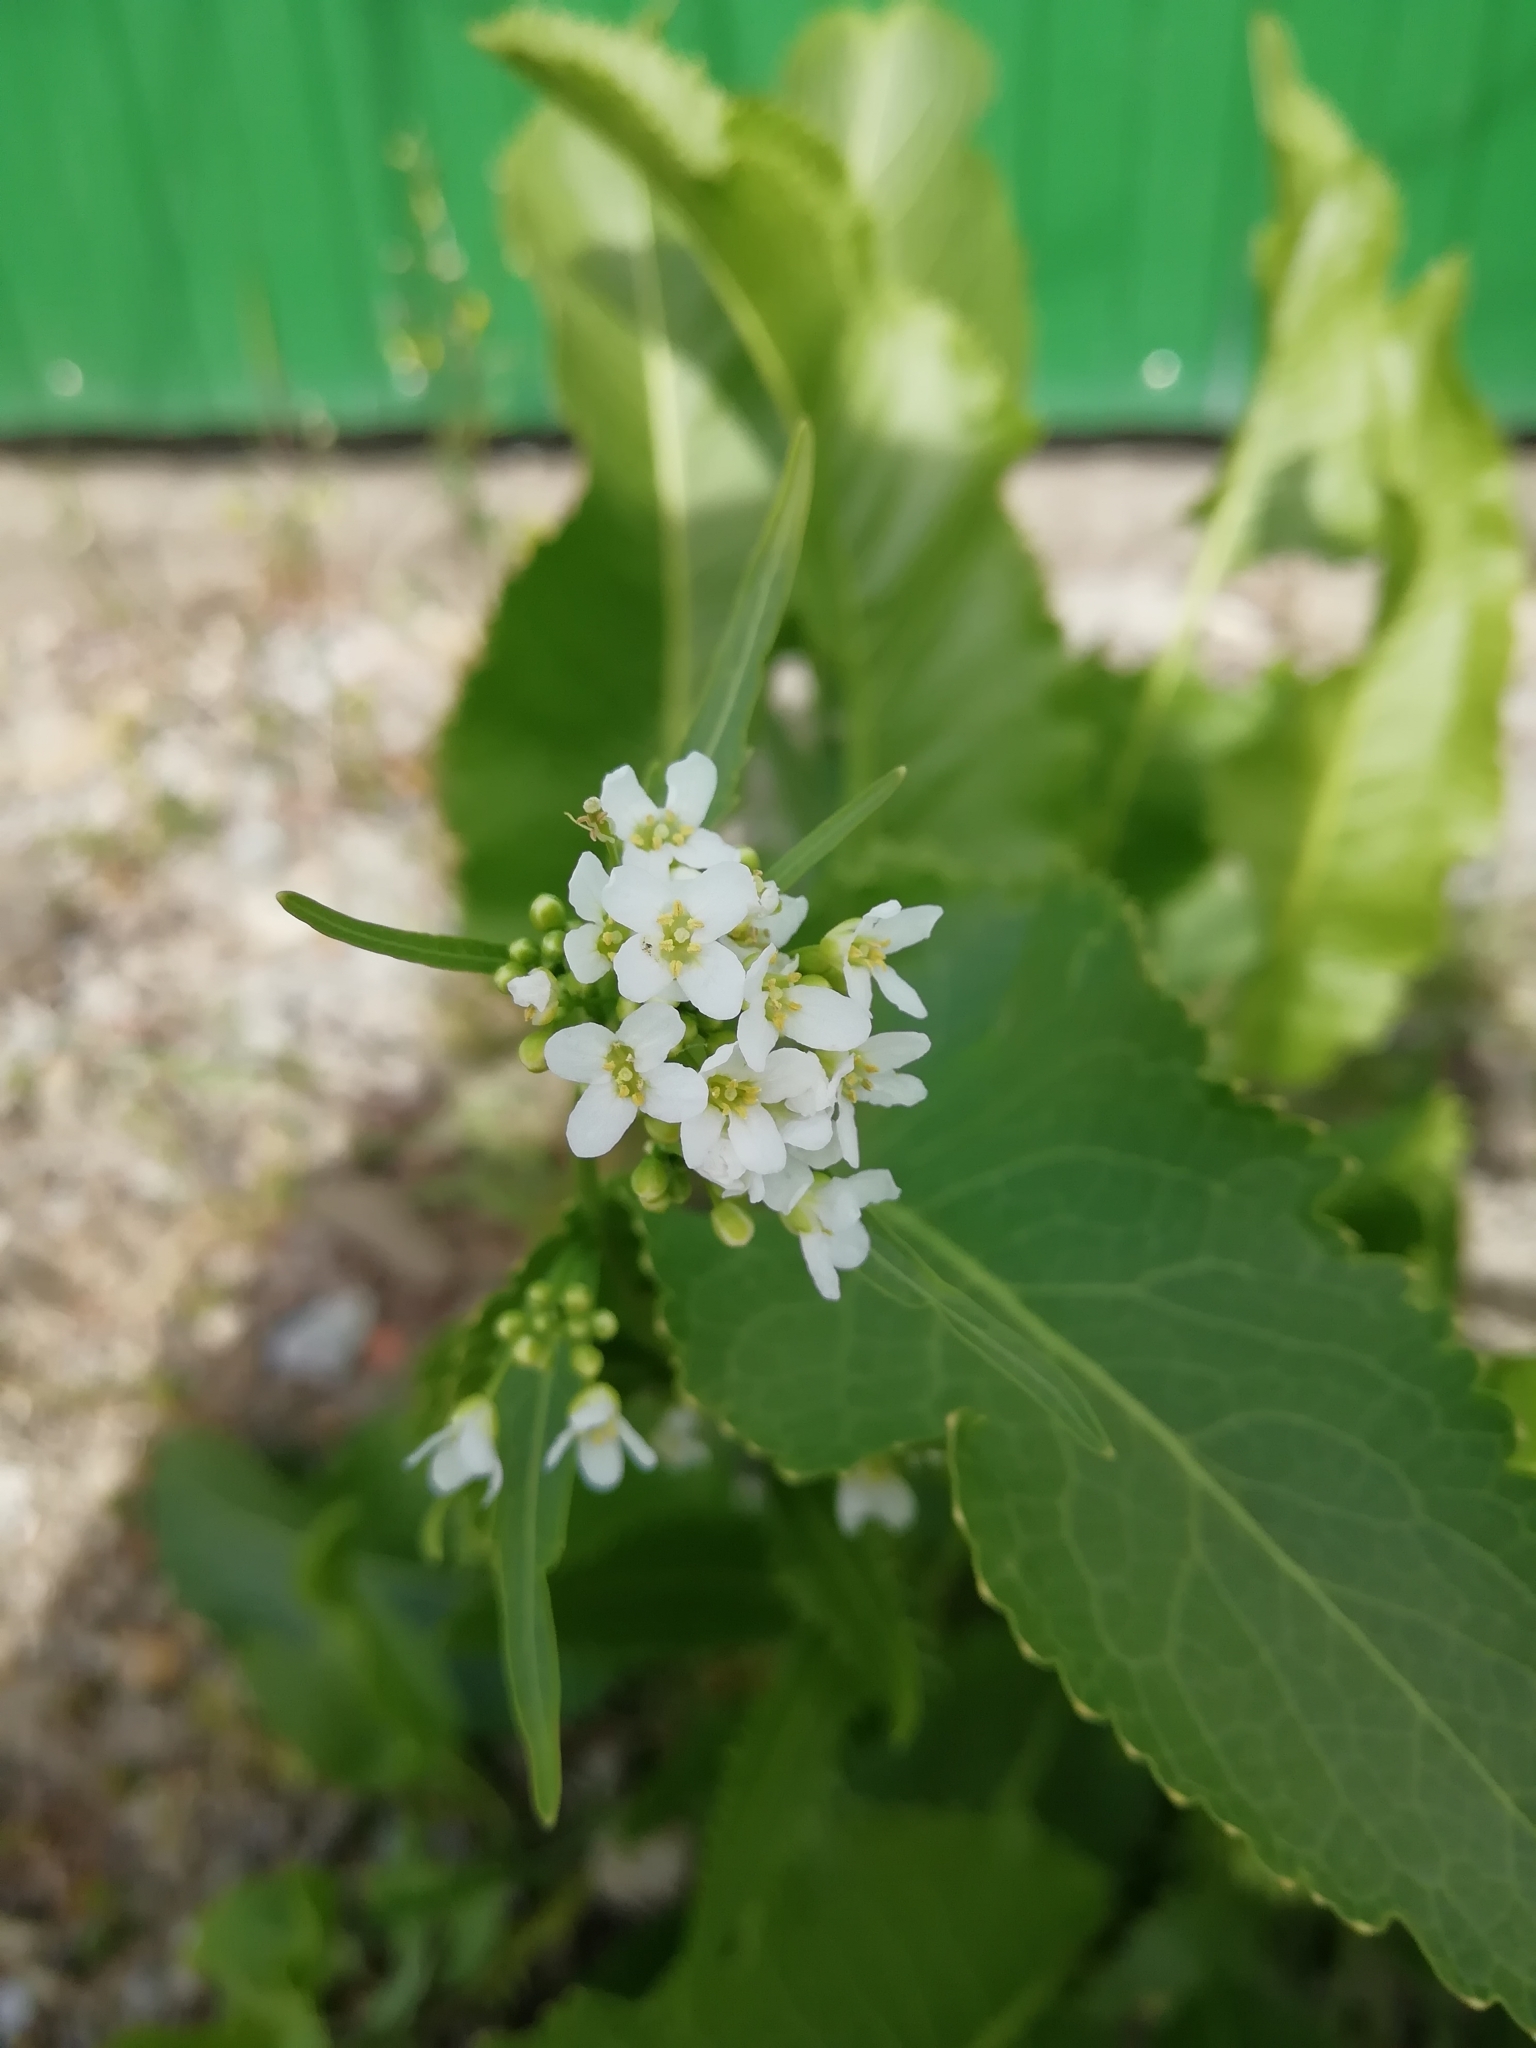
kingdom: Plantae
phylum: Tracheophyta
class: Magnoliopsida
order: Brassicales
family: Brassicaceae
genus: Armoracia
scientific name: Armoracia rusticana
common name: Horseradish
